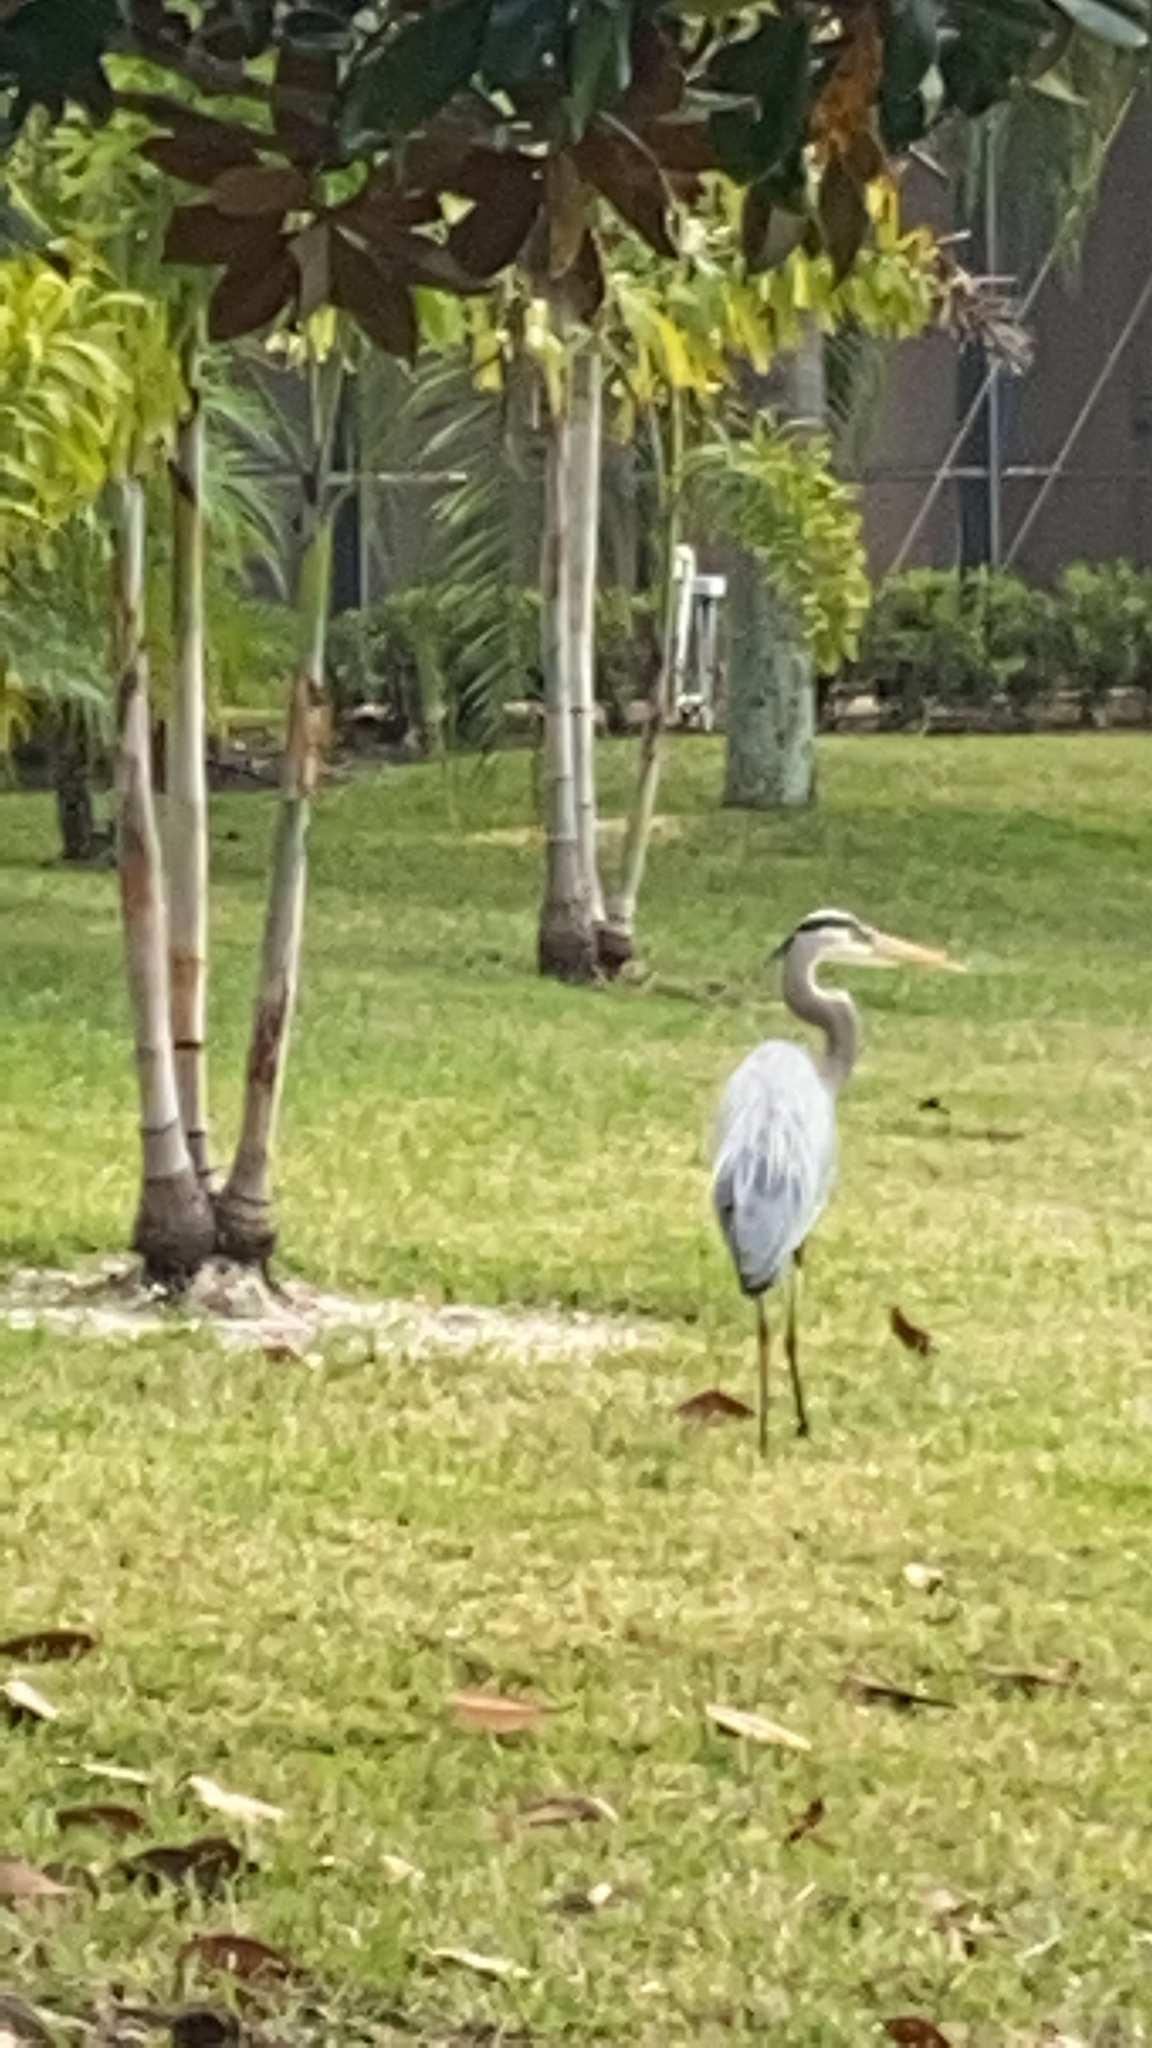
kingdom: Animalia
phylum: Chordata
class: Aves
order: Pelecaniformes
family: Ardeidae
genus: Ardea
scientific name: Ardea herodias
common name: Great blue heron
